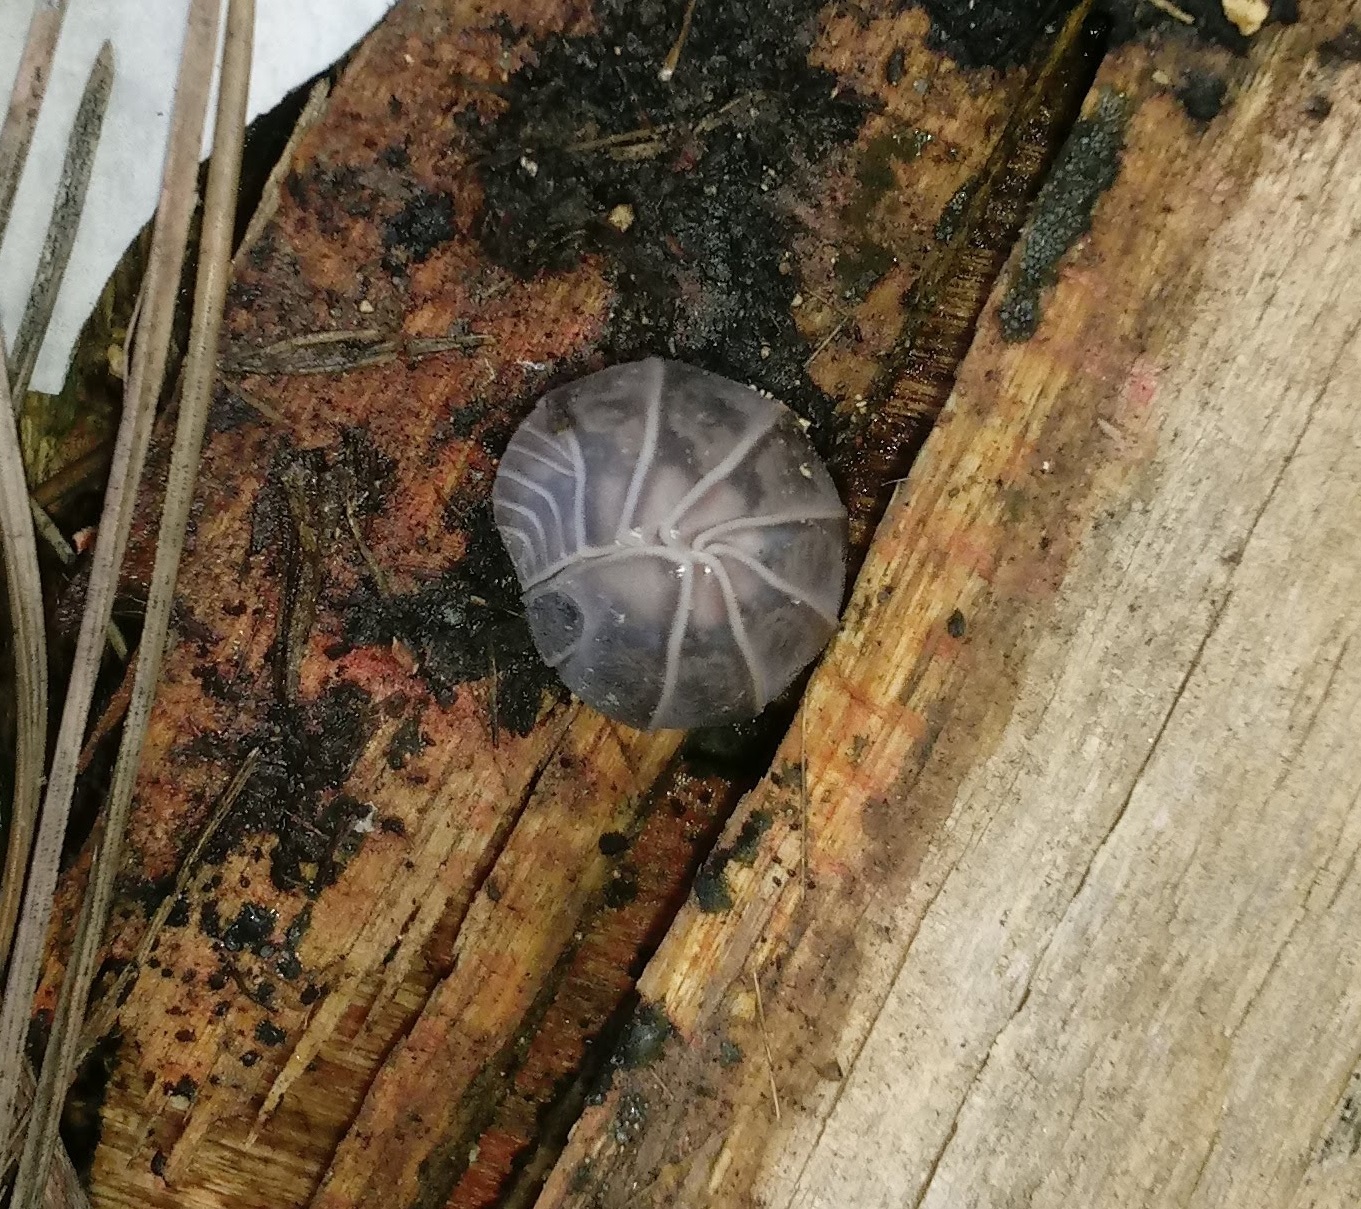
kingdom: Animalia
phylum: Arthropoda
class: Malacostraca
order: Isopoda
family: Armadillidae
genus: Armadillo
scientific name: Armadillo officinalis
